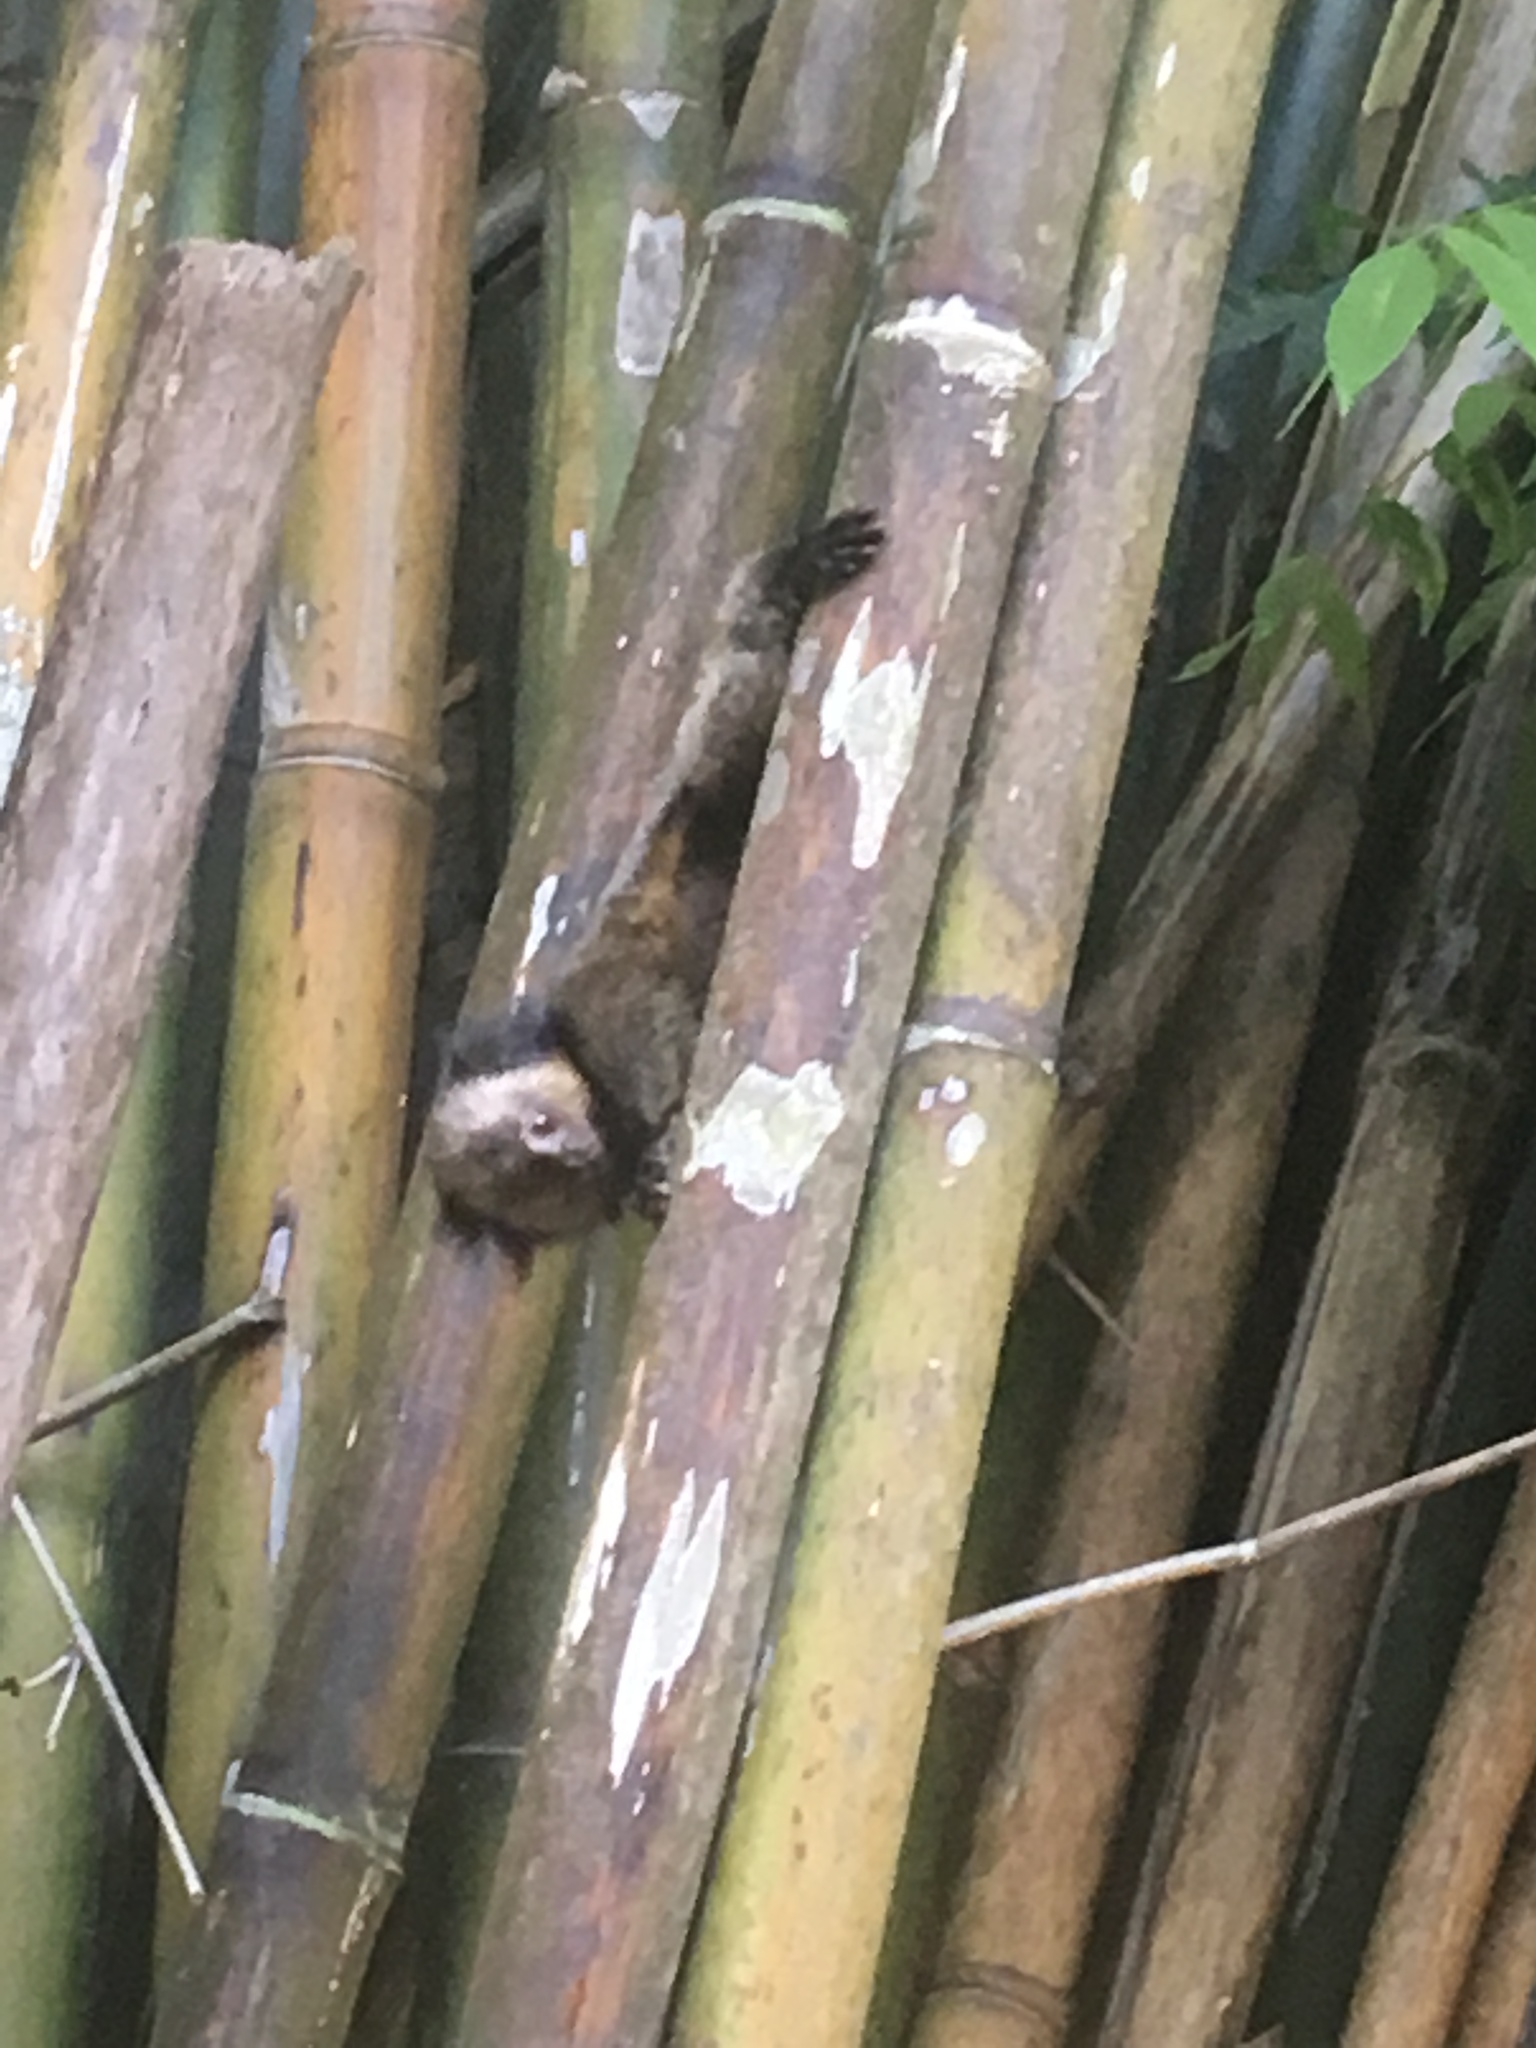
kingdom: Animalia
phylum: Chordata
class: Mammalia
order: Primates
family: Callitrichidae
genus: Callithrix
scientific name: Callithrix geoffroyi
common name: White-headed marmoset
